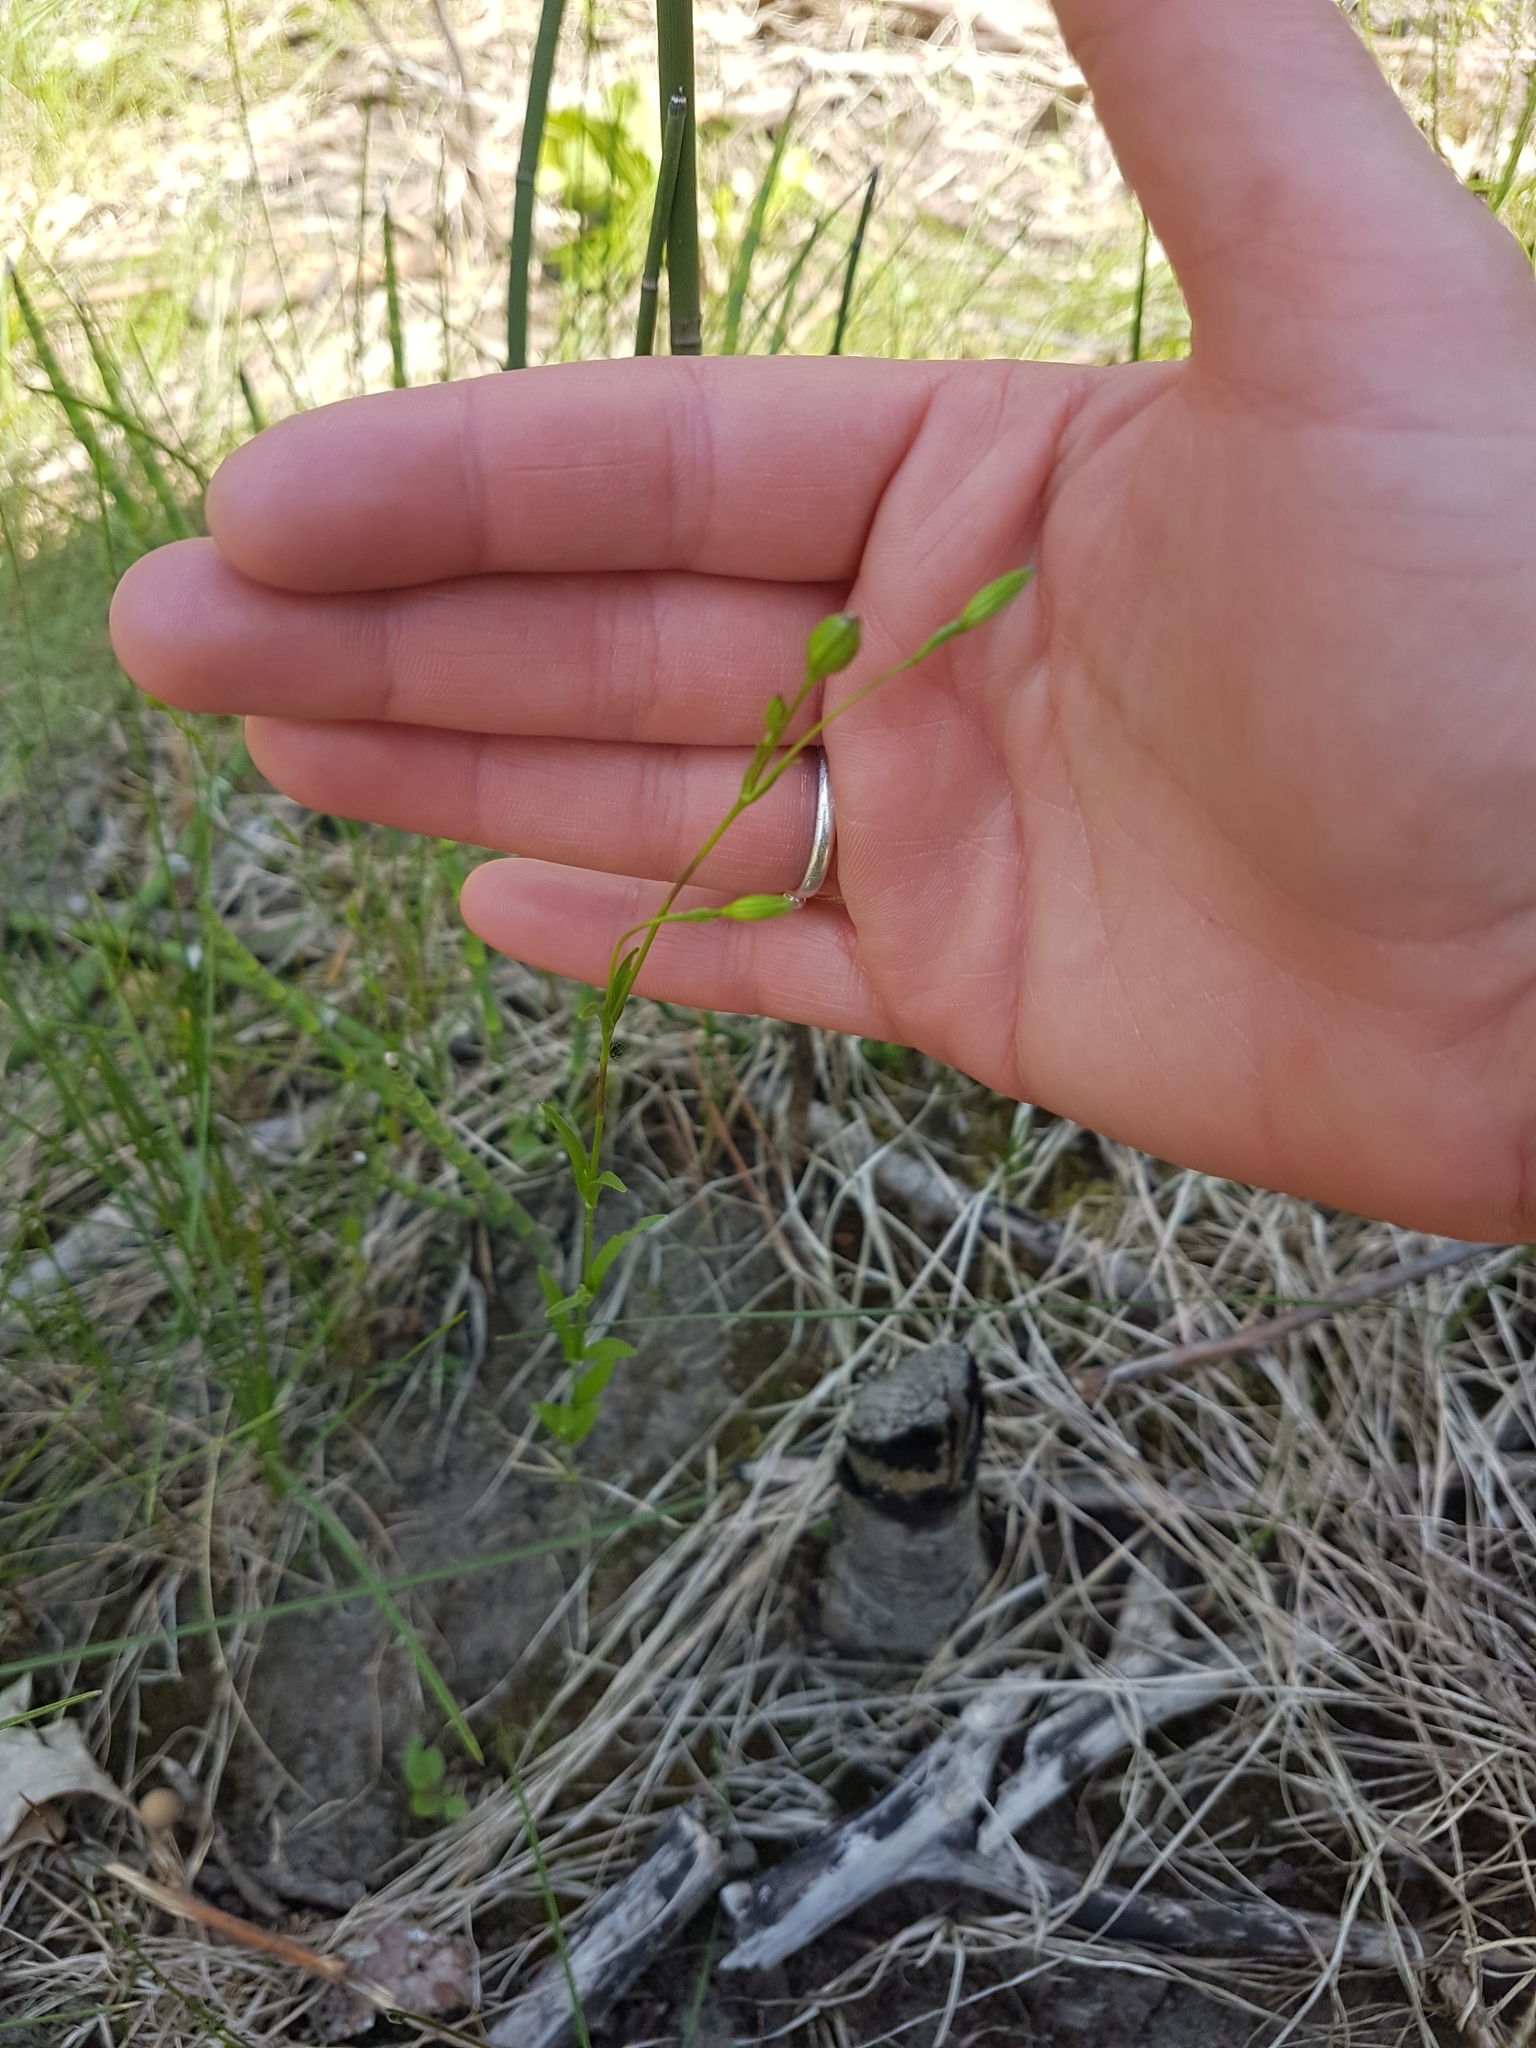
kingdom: Plantae
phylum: Tracheophyta
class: Magnoliopsida
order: Caryophyllales
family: Caryophyllaceae
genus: Silene
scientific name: Silene antirrhina
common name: Sleepy catchfly
